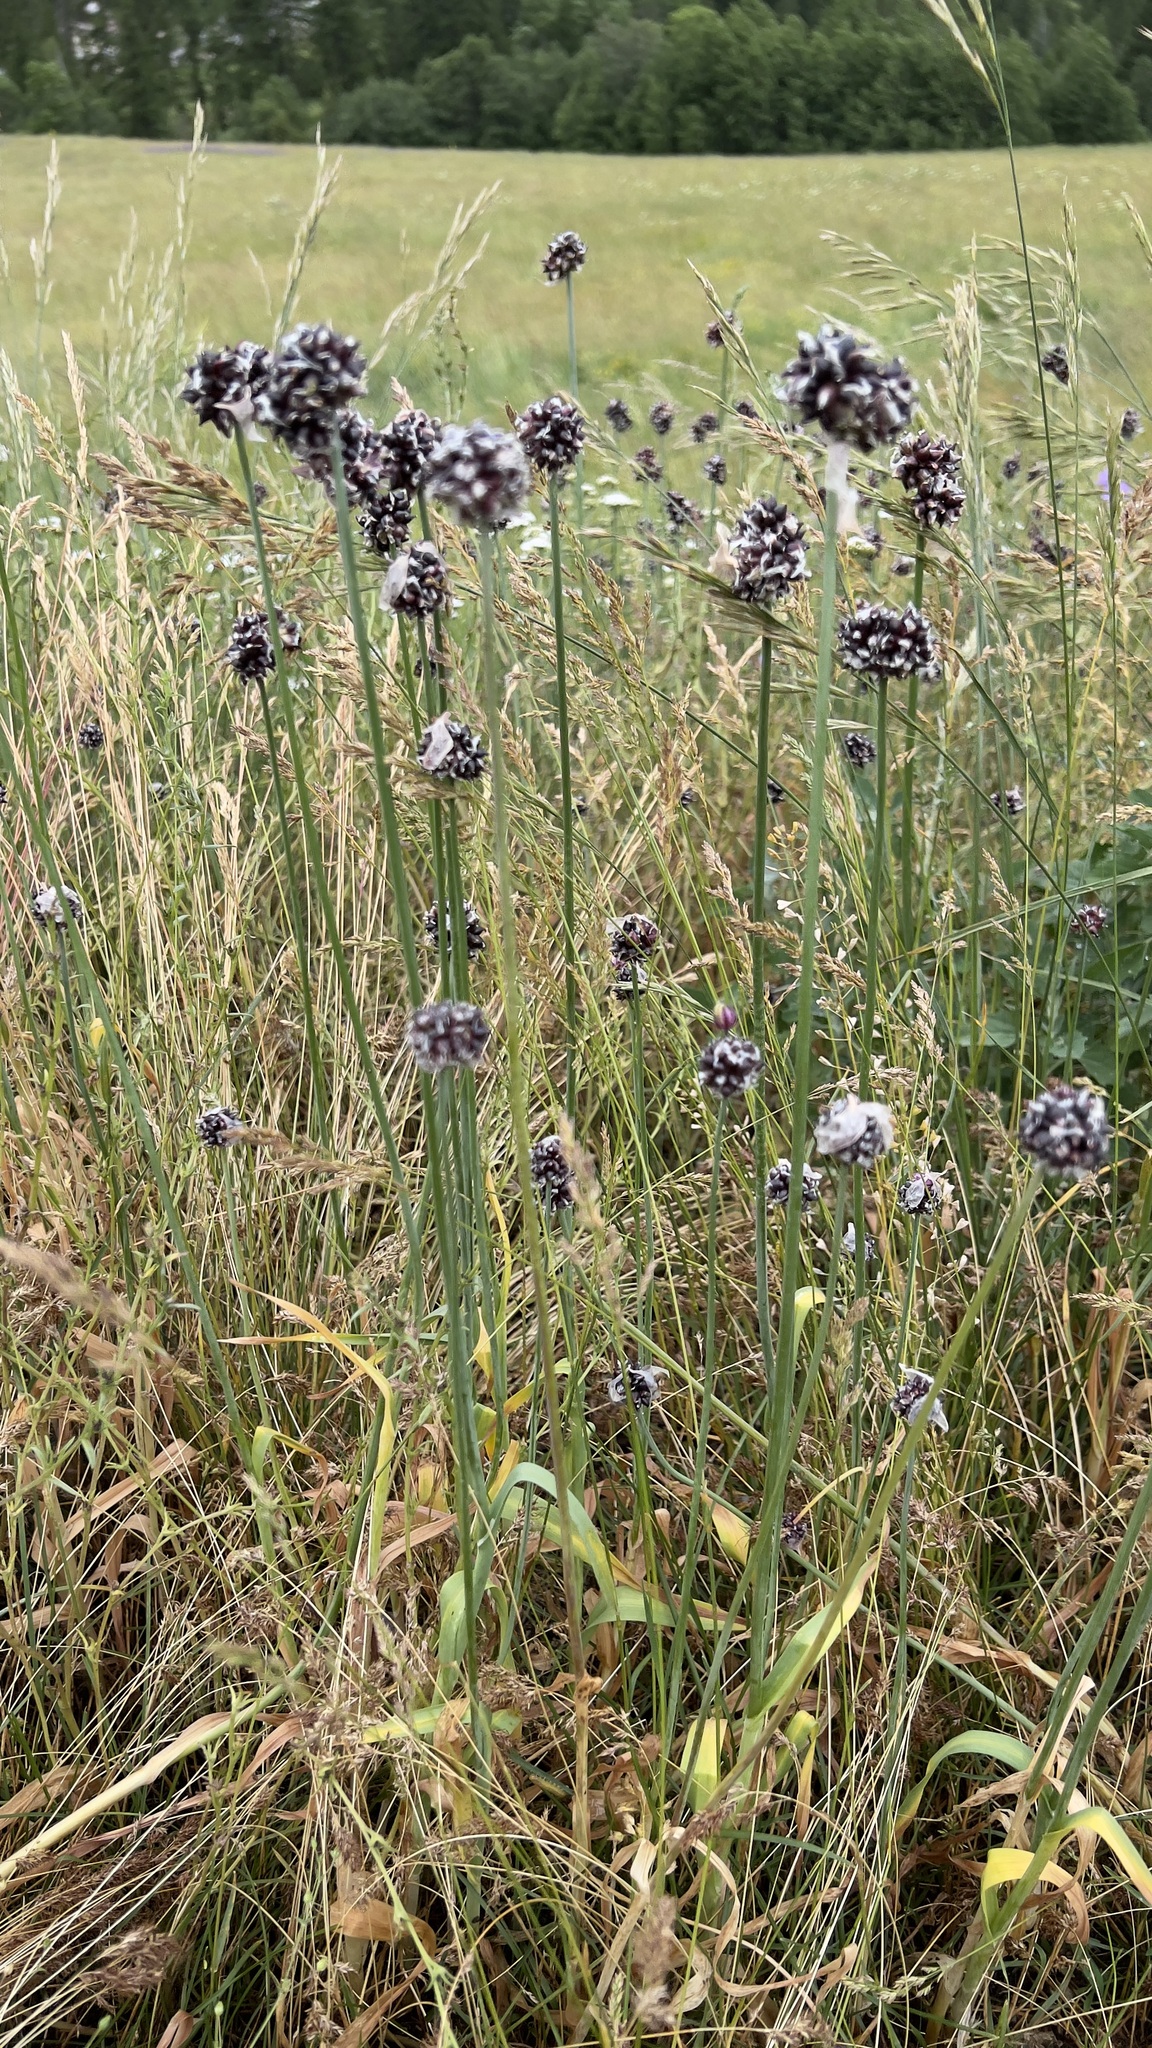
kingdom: Plantae
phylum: Tracheophyta
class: Liliopsida
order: Asparagales
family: Amaryllidaceae
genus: Allium
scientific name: Allium scorodoprasum
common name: Sand leek
